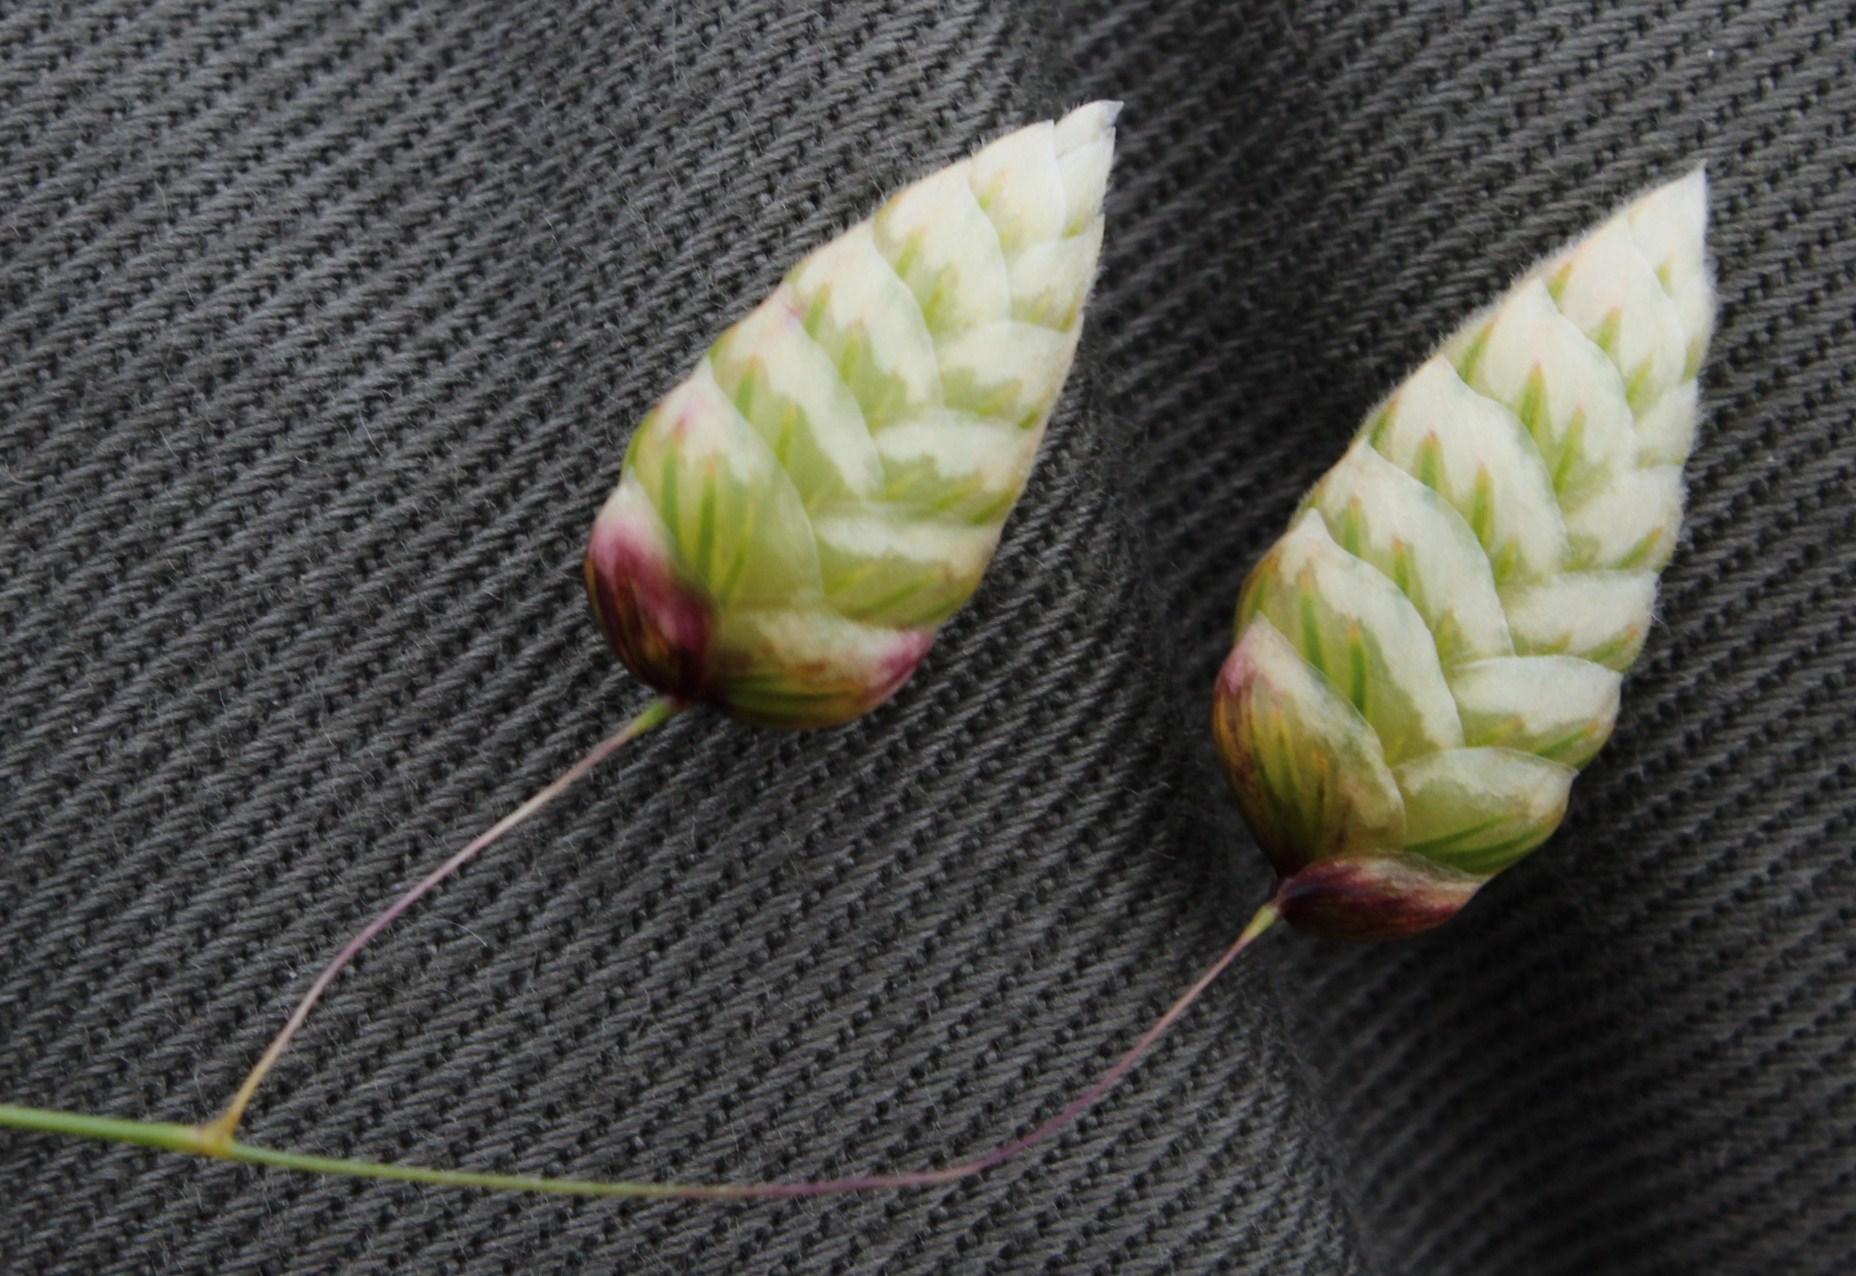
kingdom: Plantae
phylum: Tracheophyta
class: Liliopsida
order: Poales
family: Poaceae
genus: Briza
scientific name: Briza minor
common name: Lesser quaking-grass
